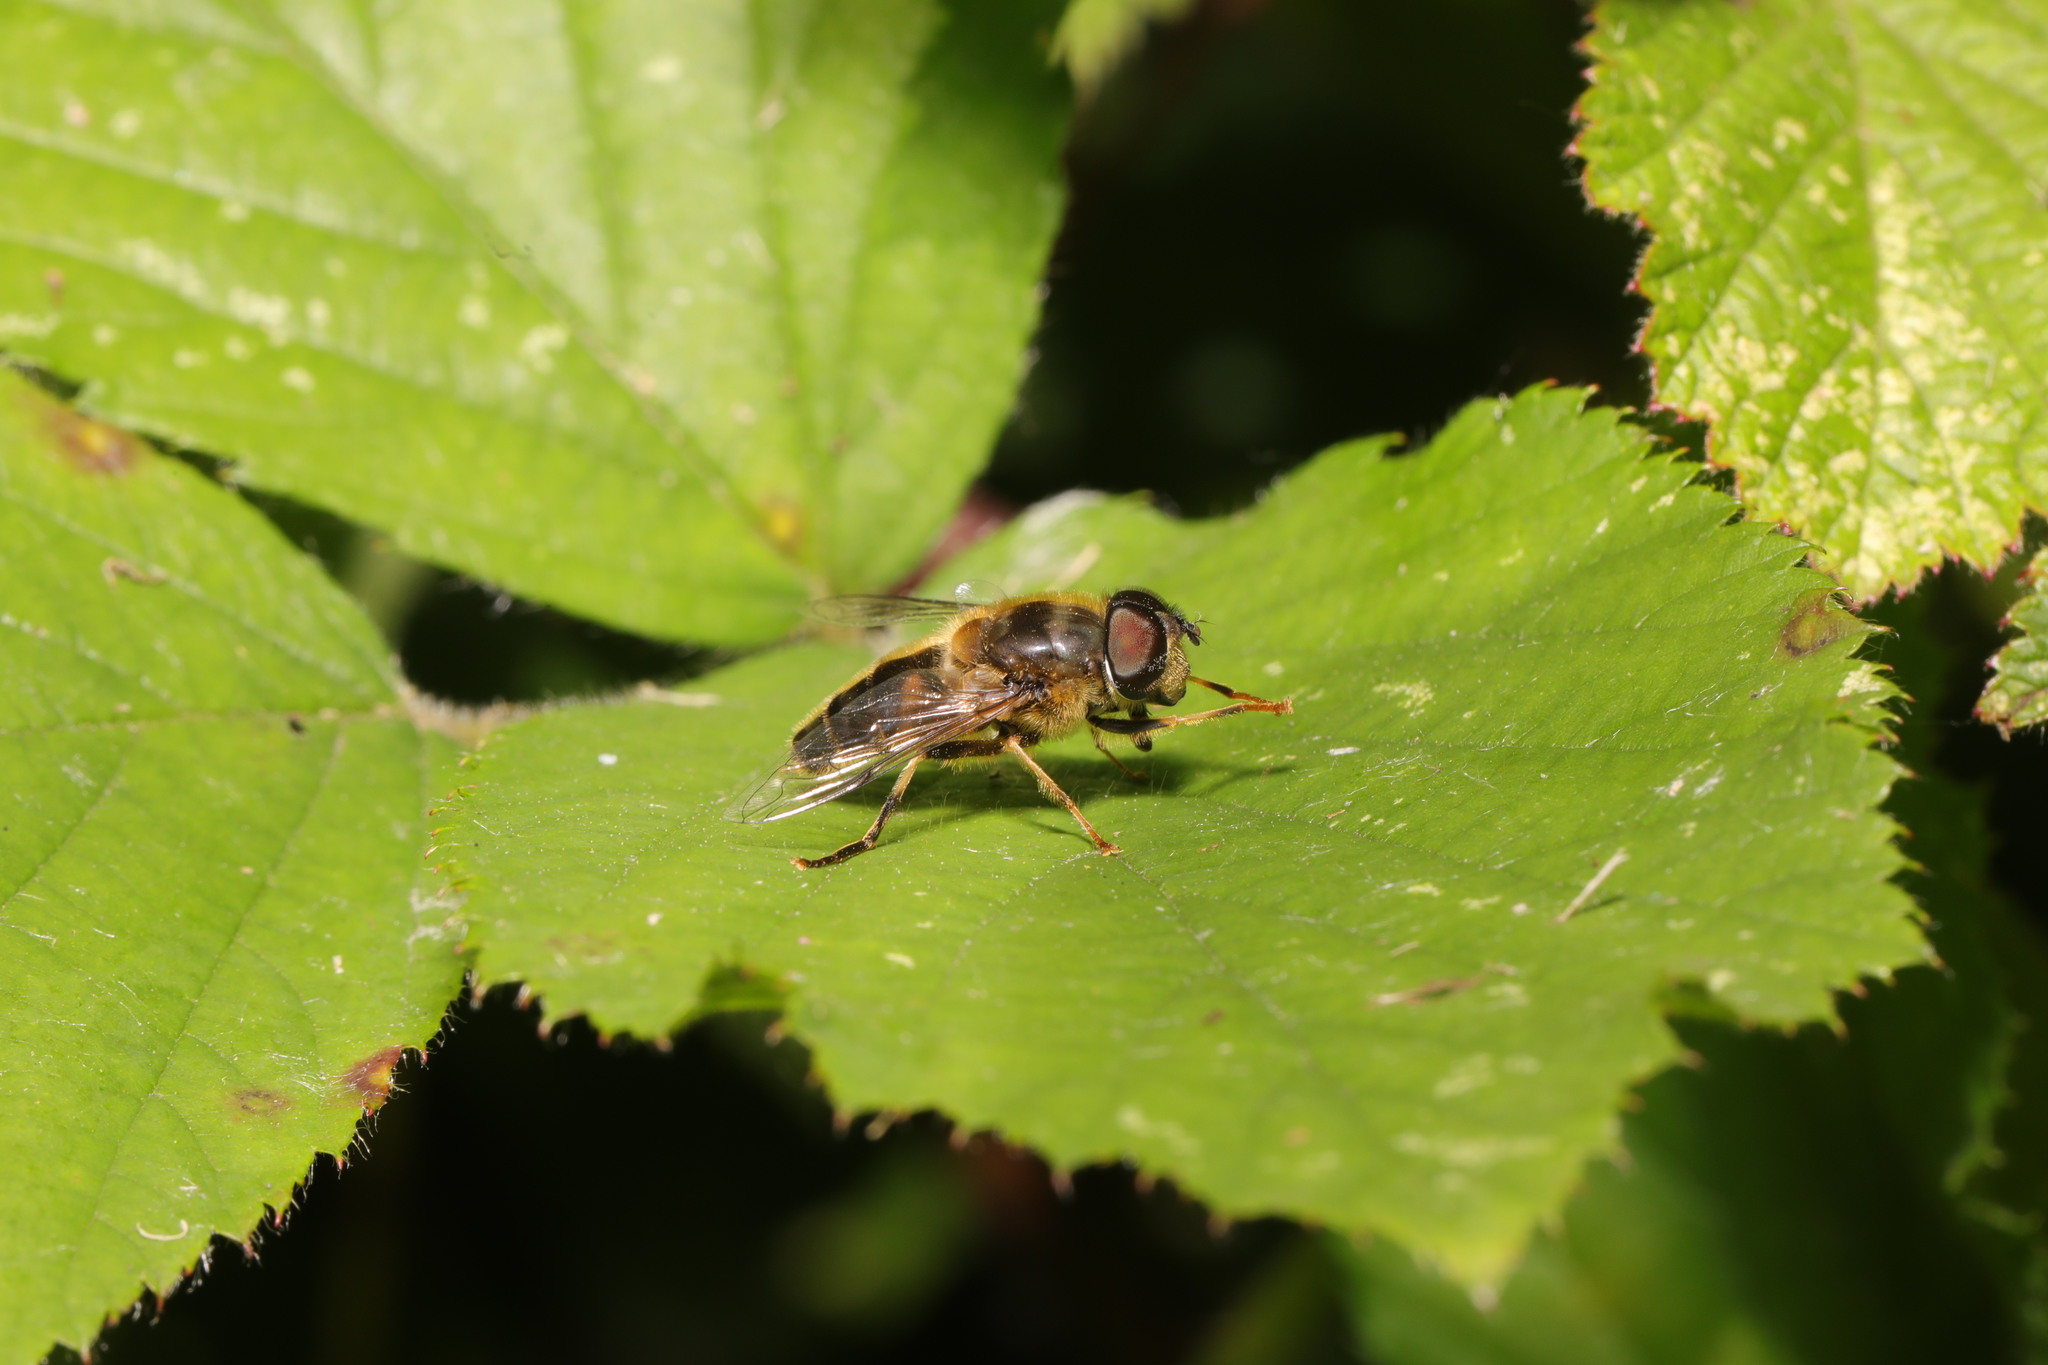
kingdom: Animalia
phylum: Arthropoda
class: Insecta
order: Diptera
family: Syrphidae
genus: Eristalis
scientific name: Eristalis pertinax
